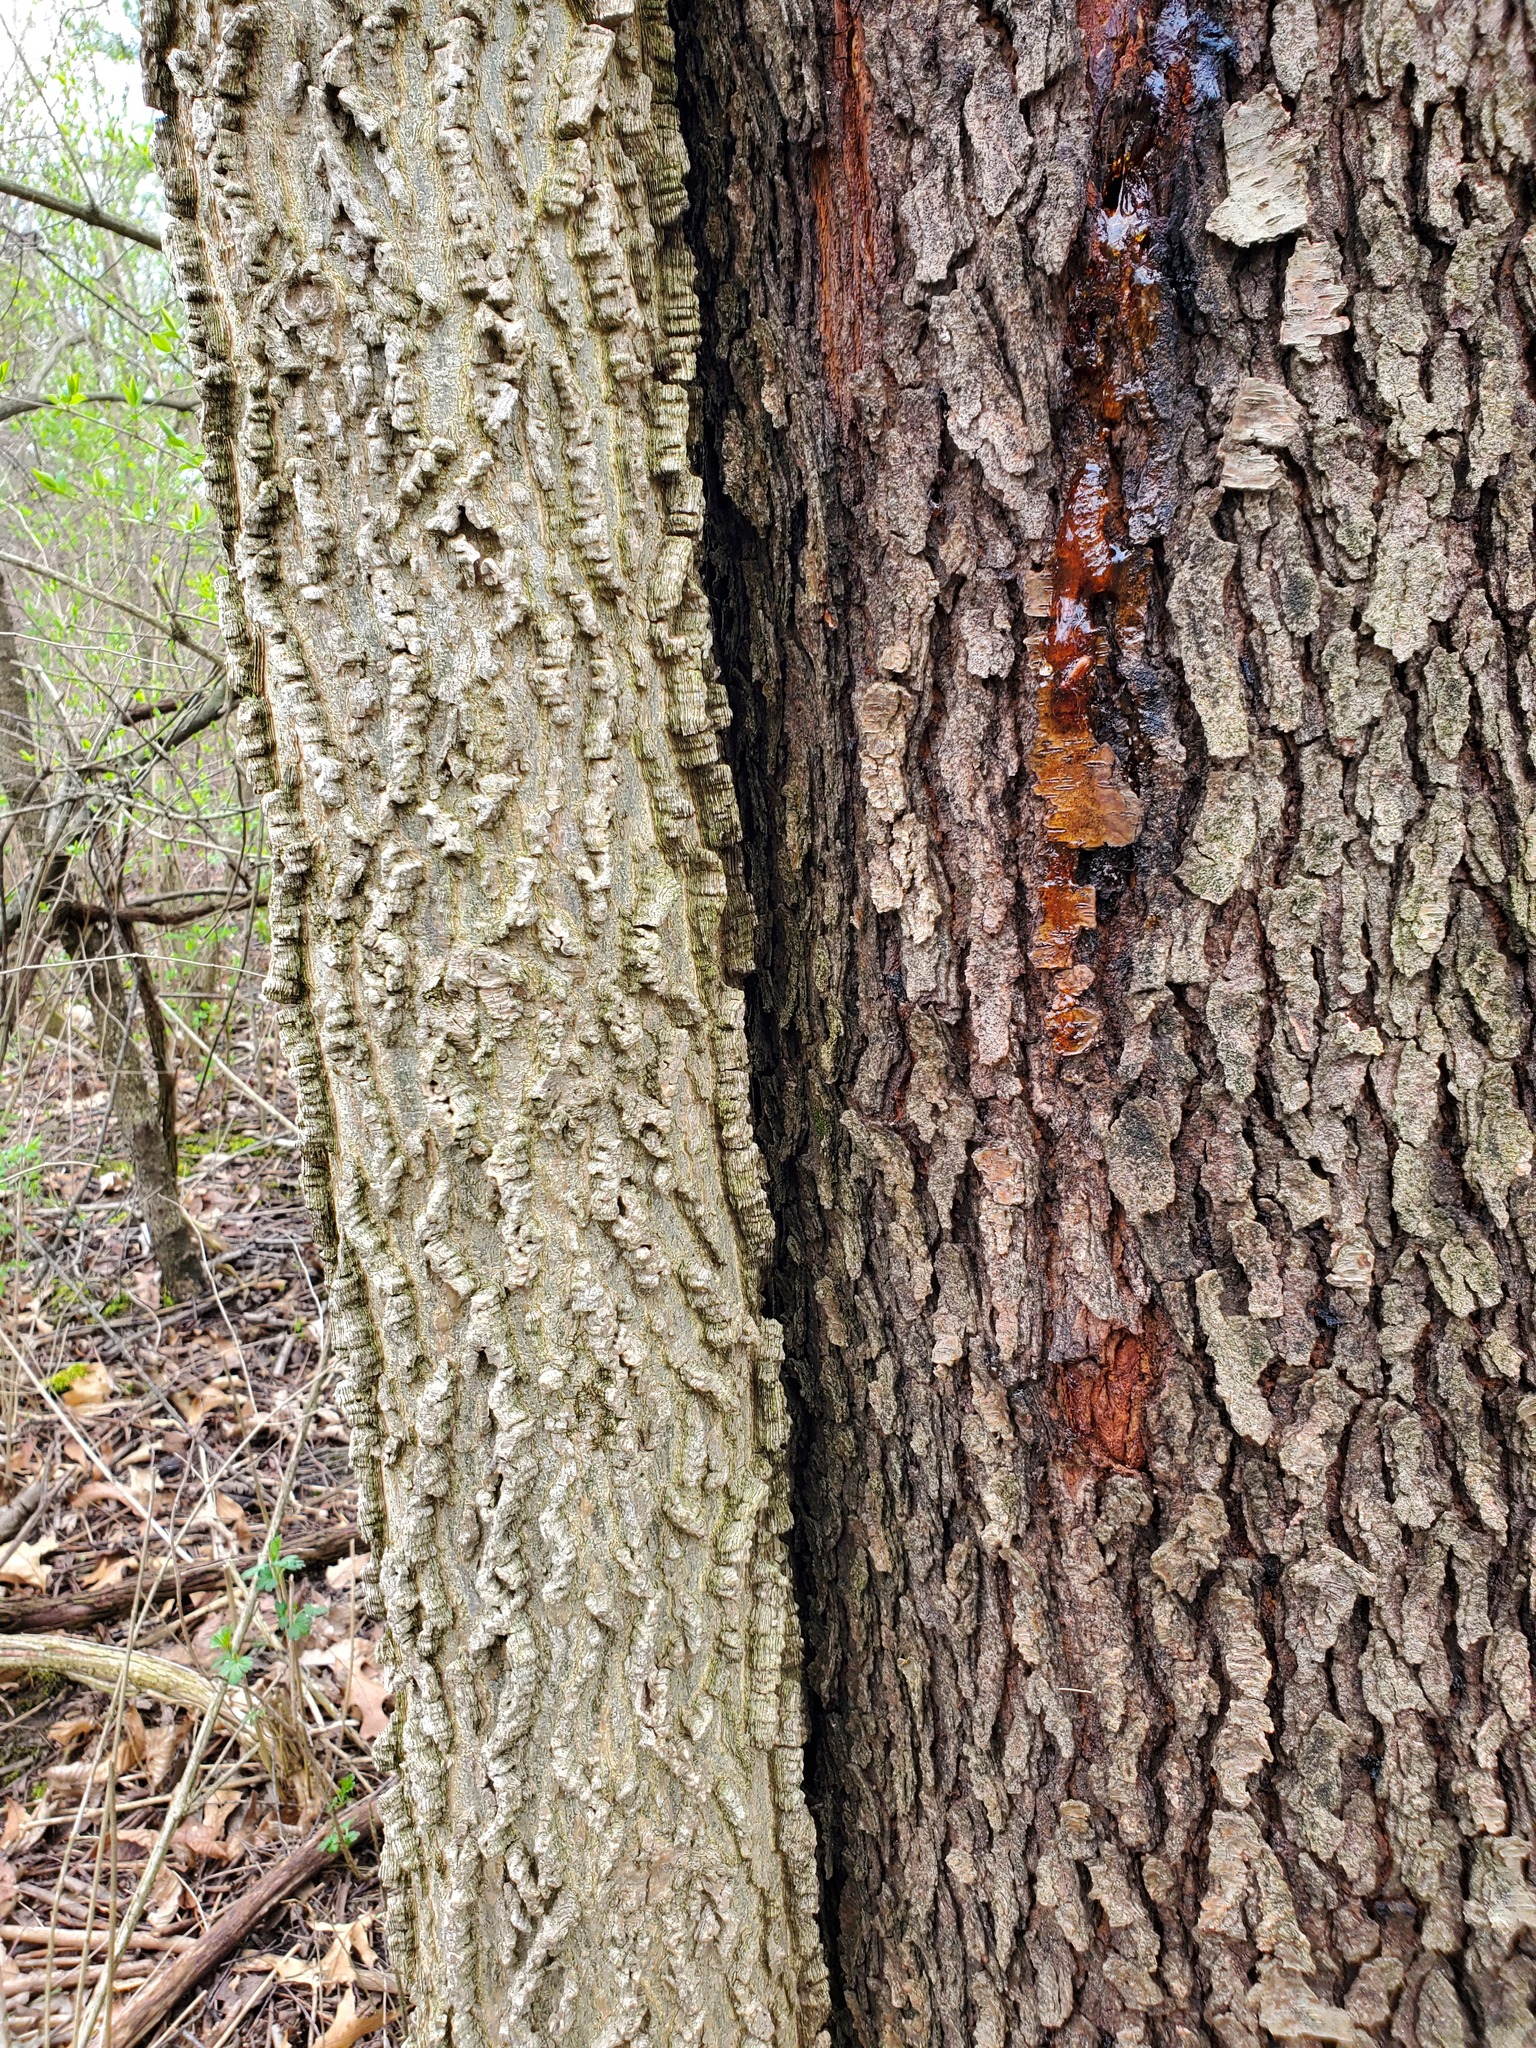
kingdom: Plantae
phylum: Tracheophyta
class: Magnoliopsida
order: Rosales
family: Rosaceae
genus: Prunus
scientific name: Prunus serotina
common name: Black cherry
